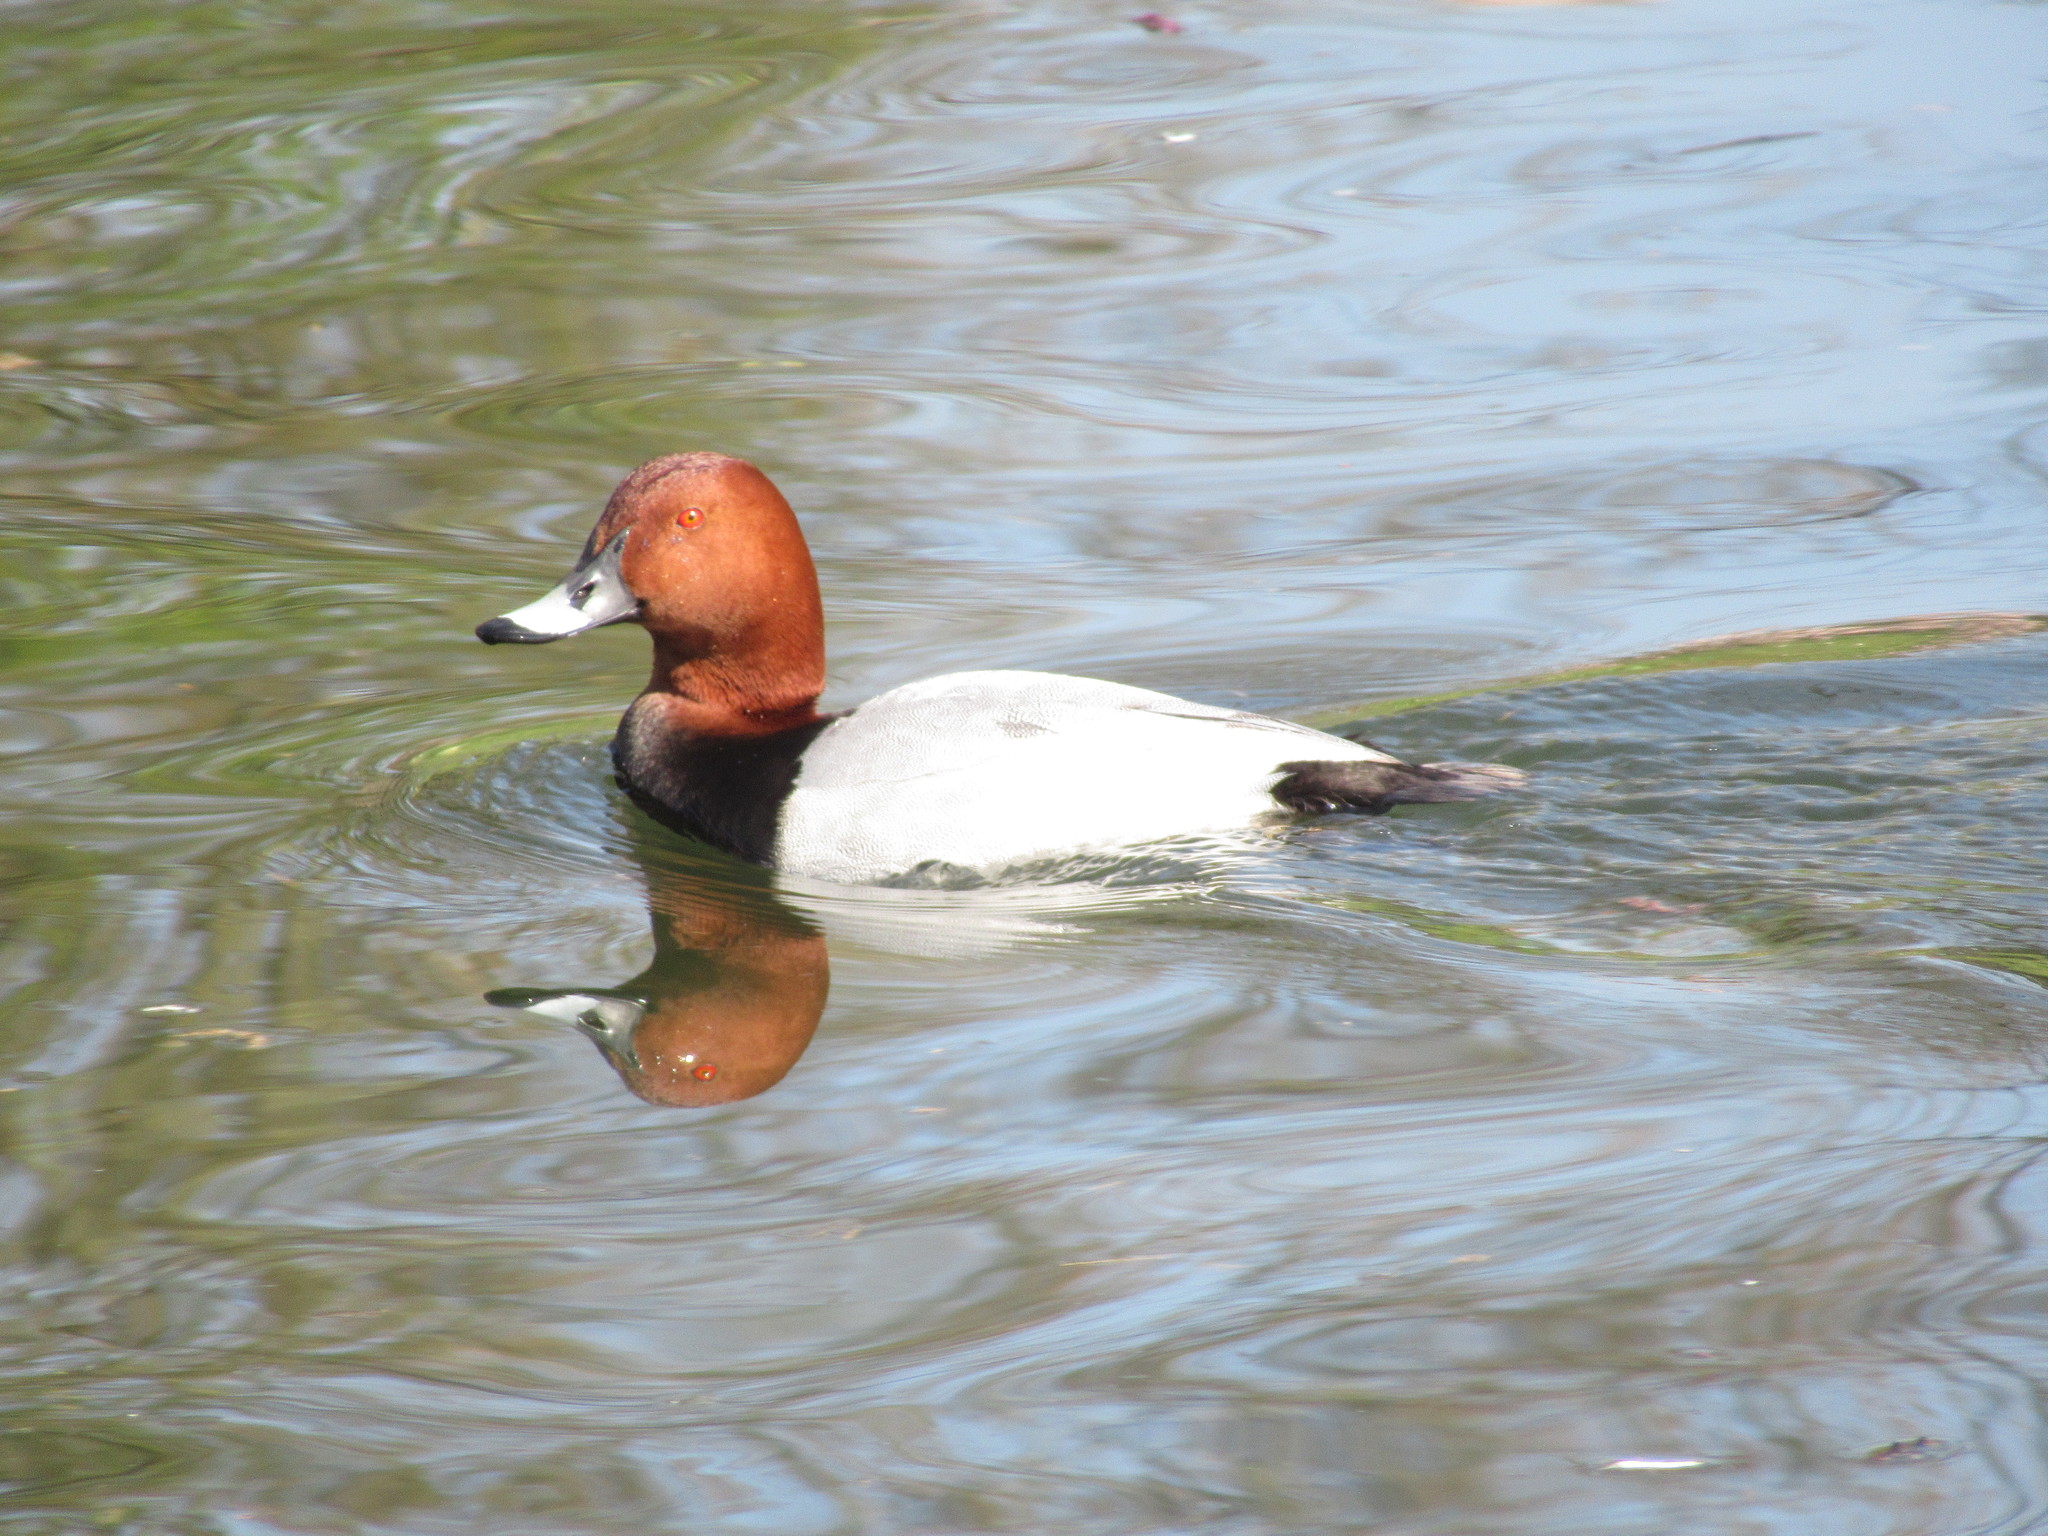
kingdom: Animalia
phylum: Chordata
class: Aves
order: Anseriformes
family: Anatidae
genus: Aythya
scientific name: Aythya ferina
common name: Common pochard
